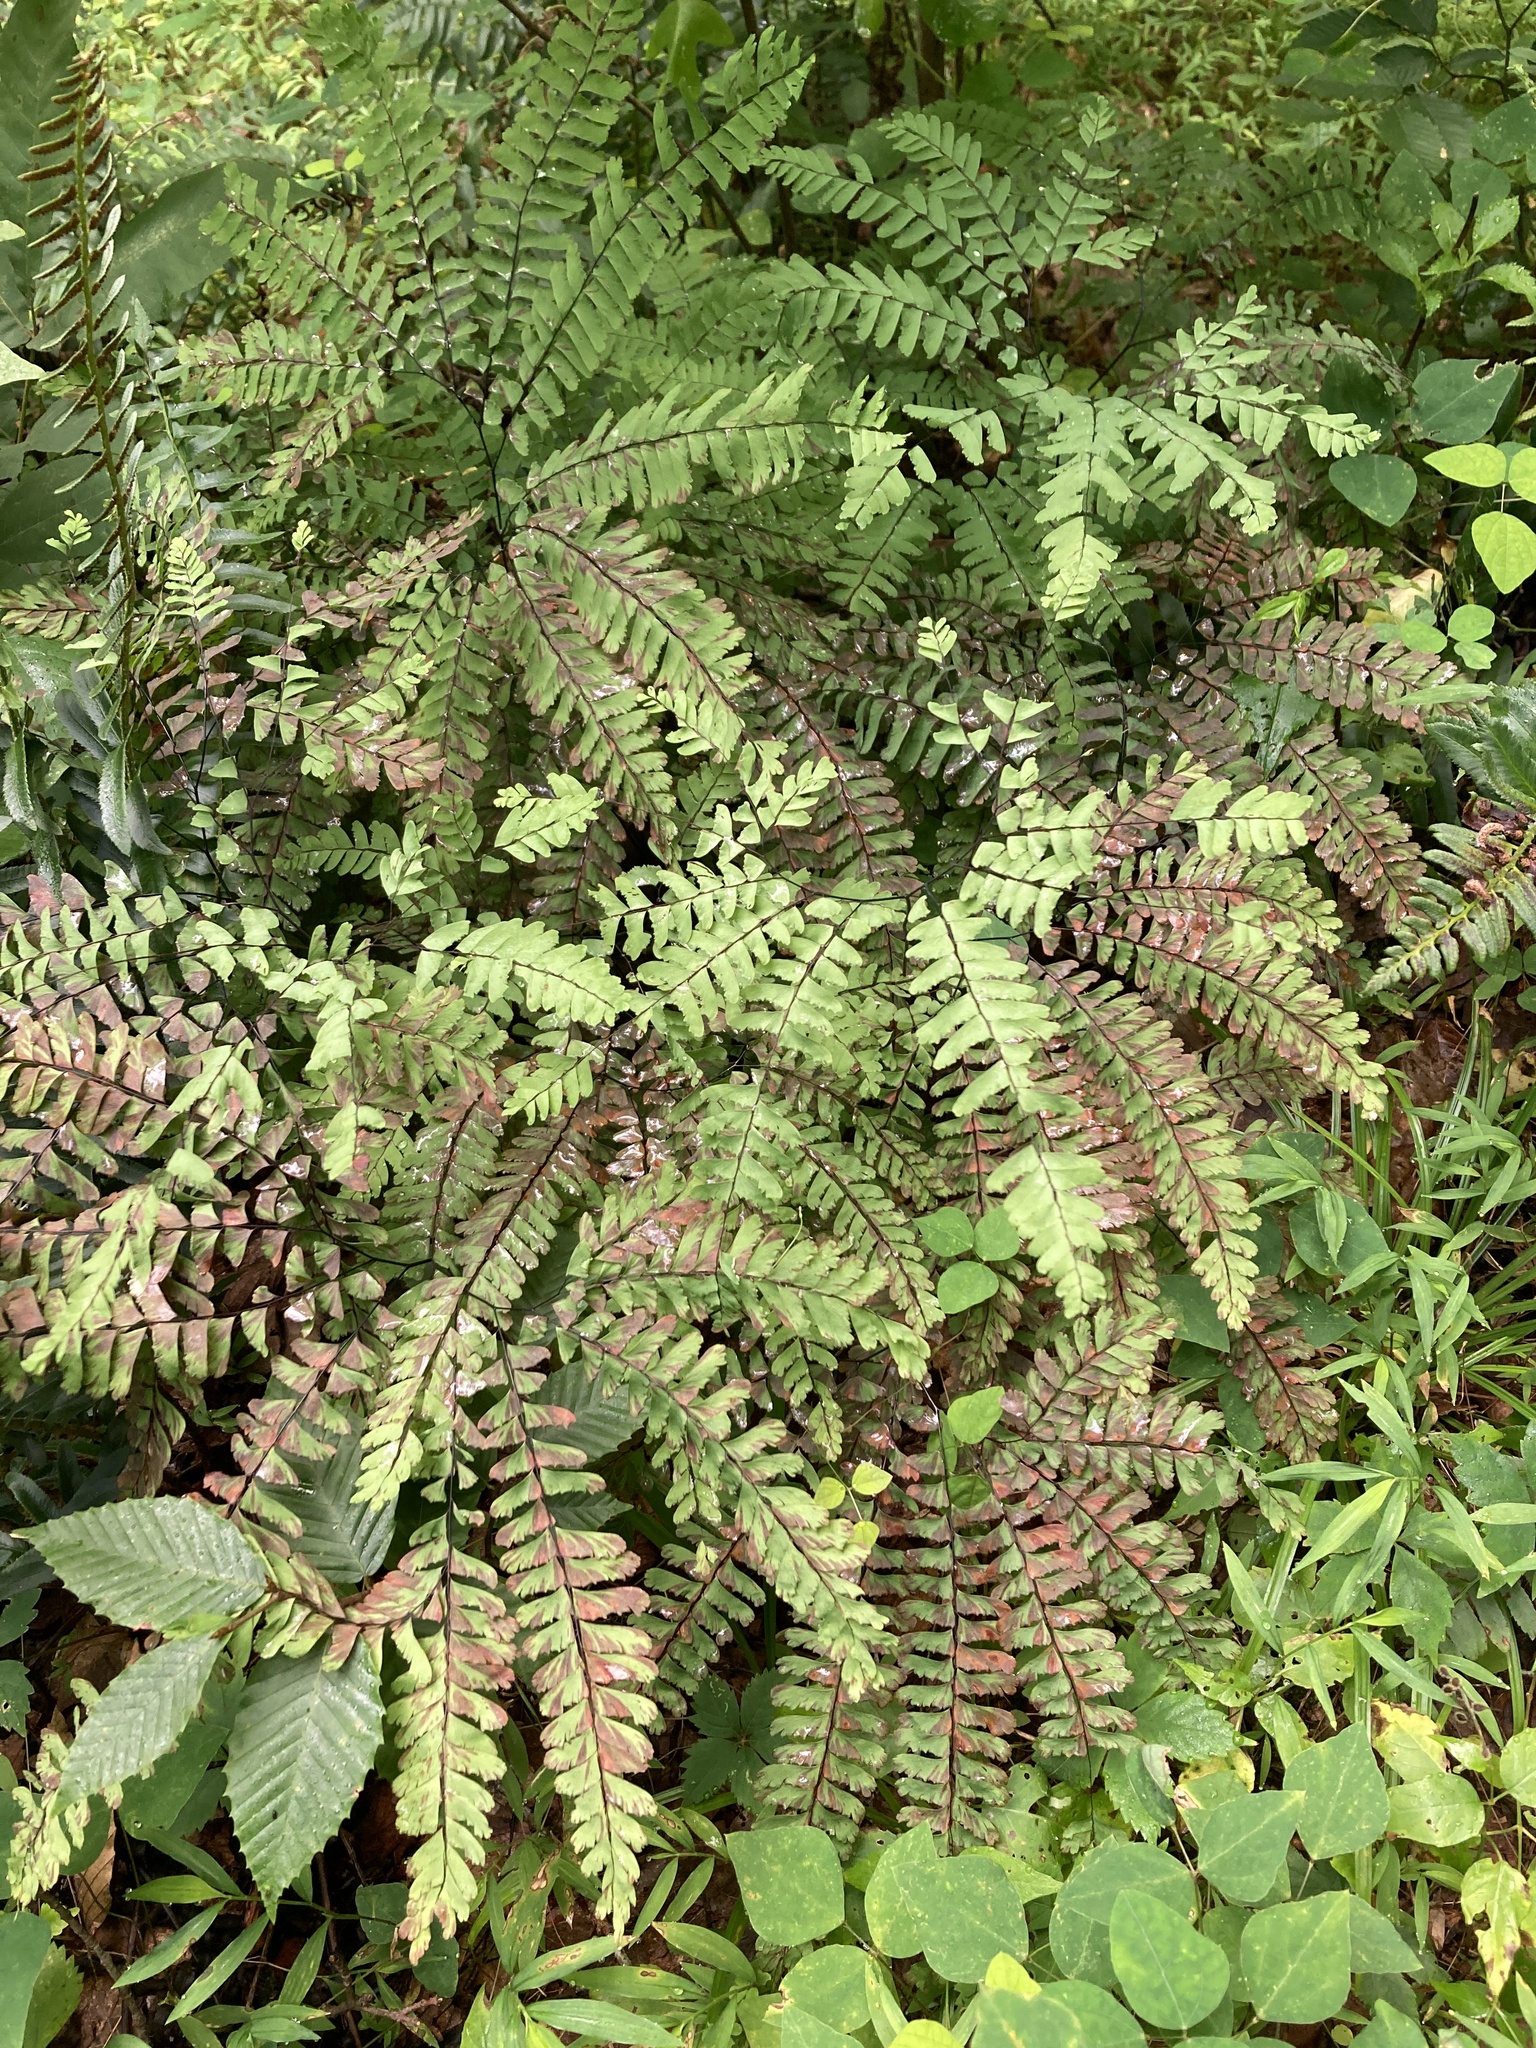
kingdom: Plantae
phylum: Tracheophyta
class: Polypodiopsida
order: Polypodiales
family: Pteridaceae
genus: Adiantum
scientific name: Adiantum pedatum
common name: Five-finger fern
